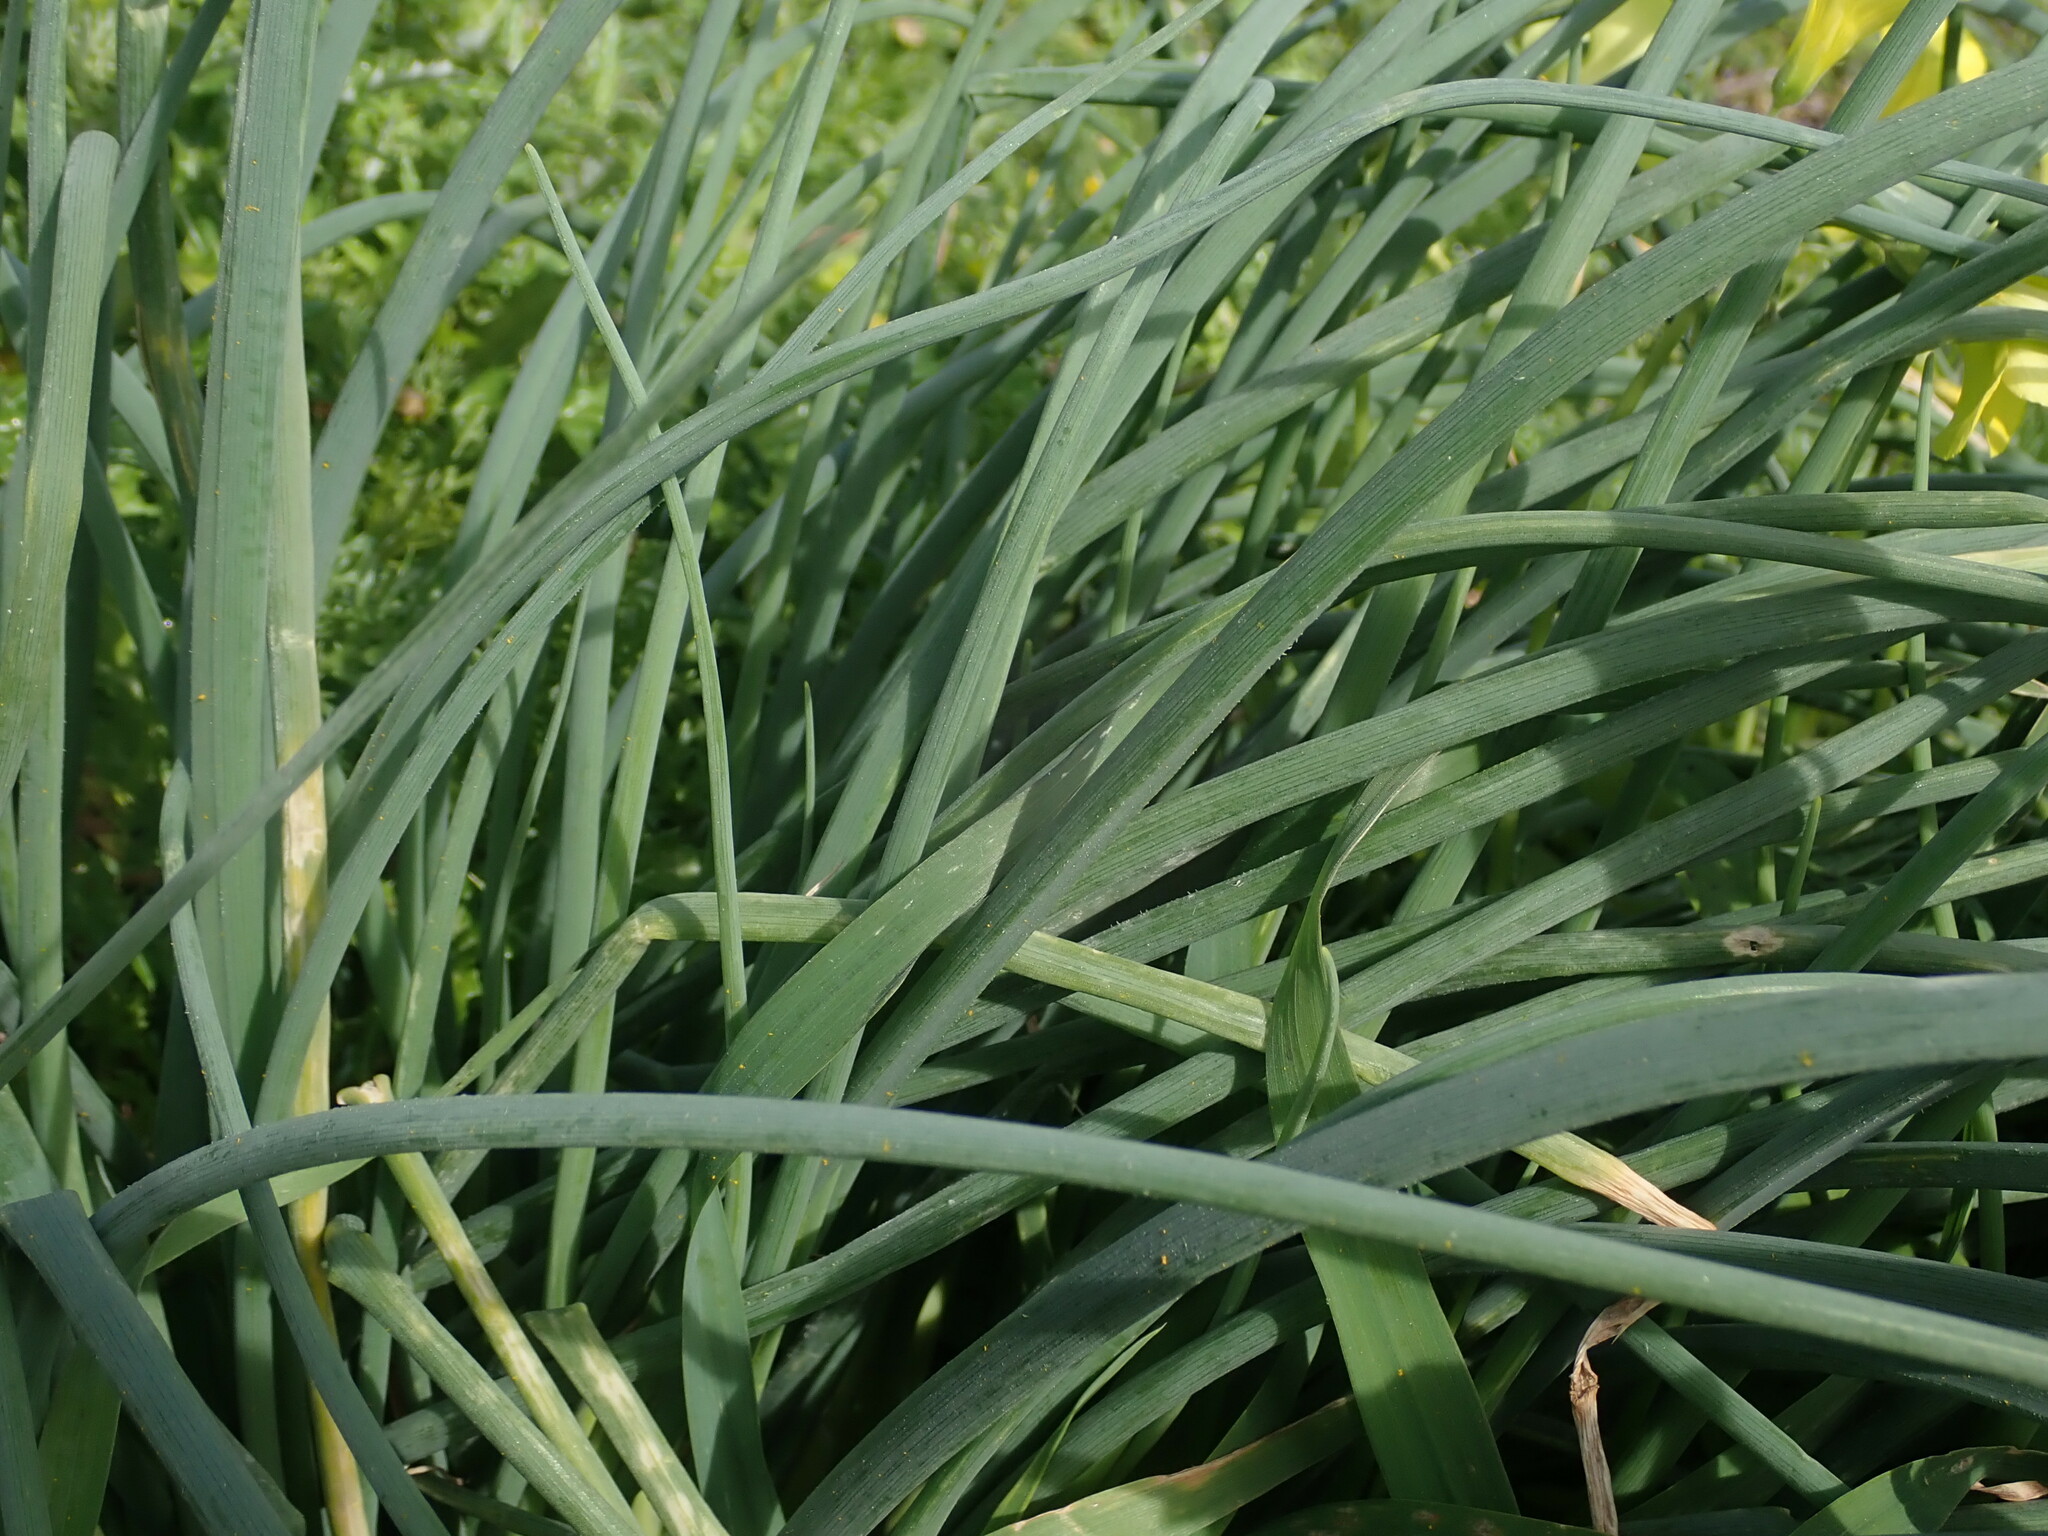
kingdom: Plantae
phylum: Tracheophyta
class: Liliopsida
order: Asparagales
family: Amaryllidaceae
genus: Allium
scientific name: Allium subhirsutum
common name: Hairy garlic
